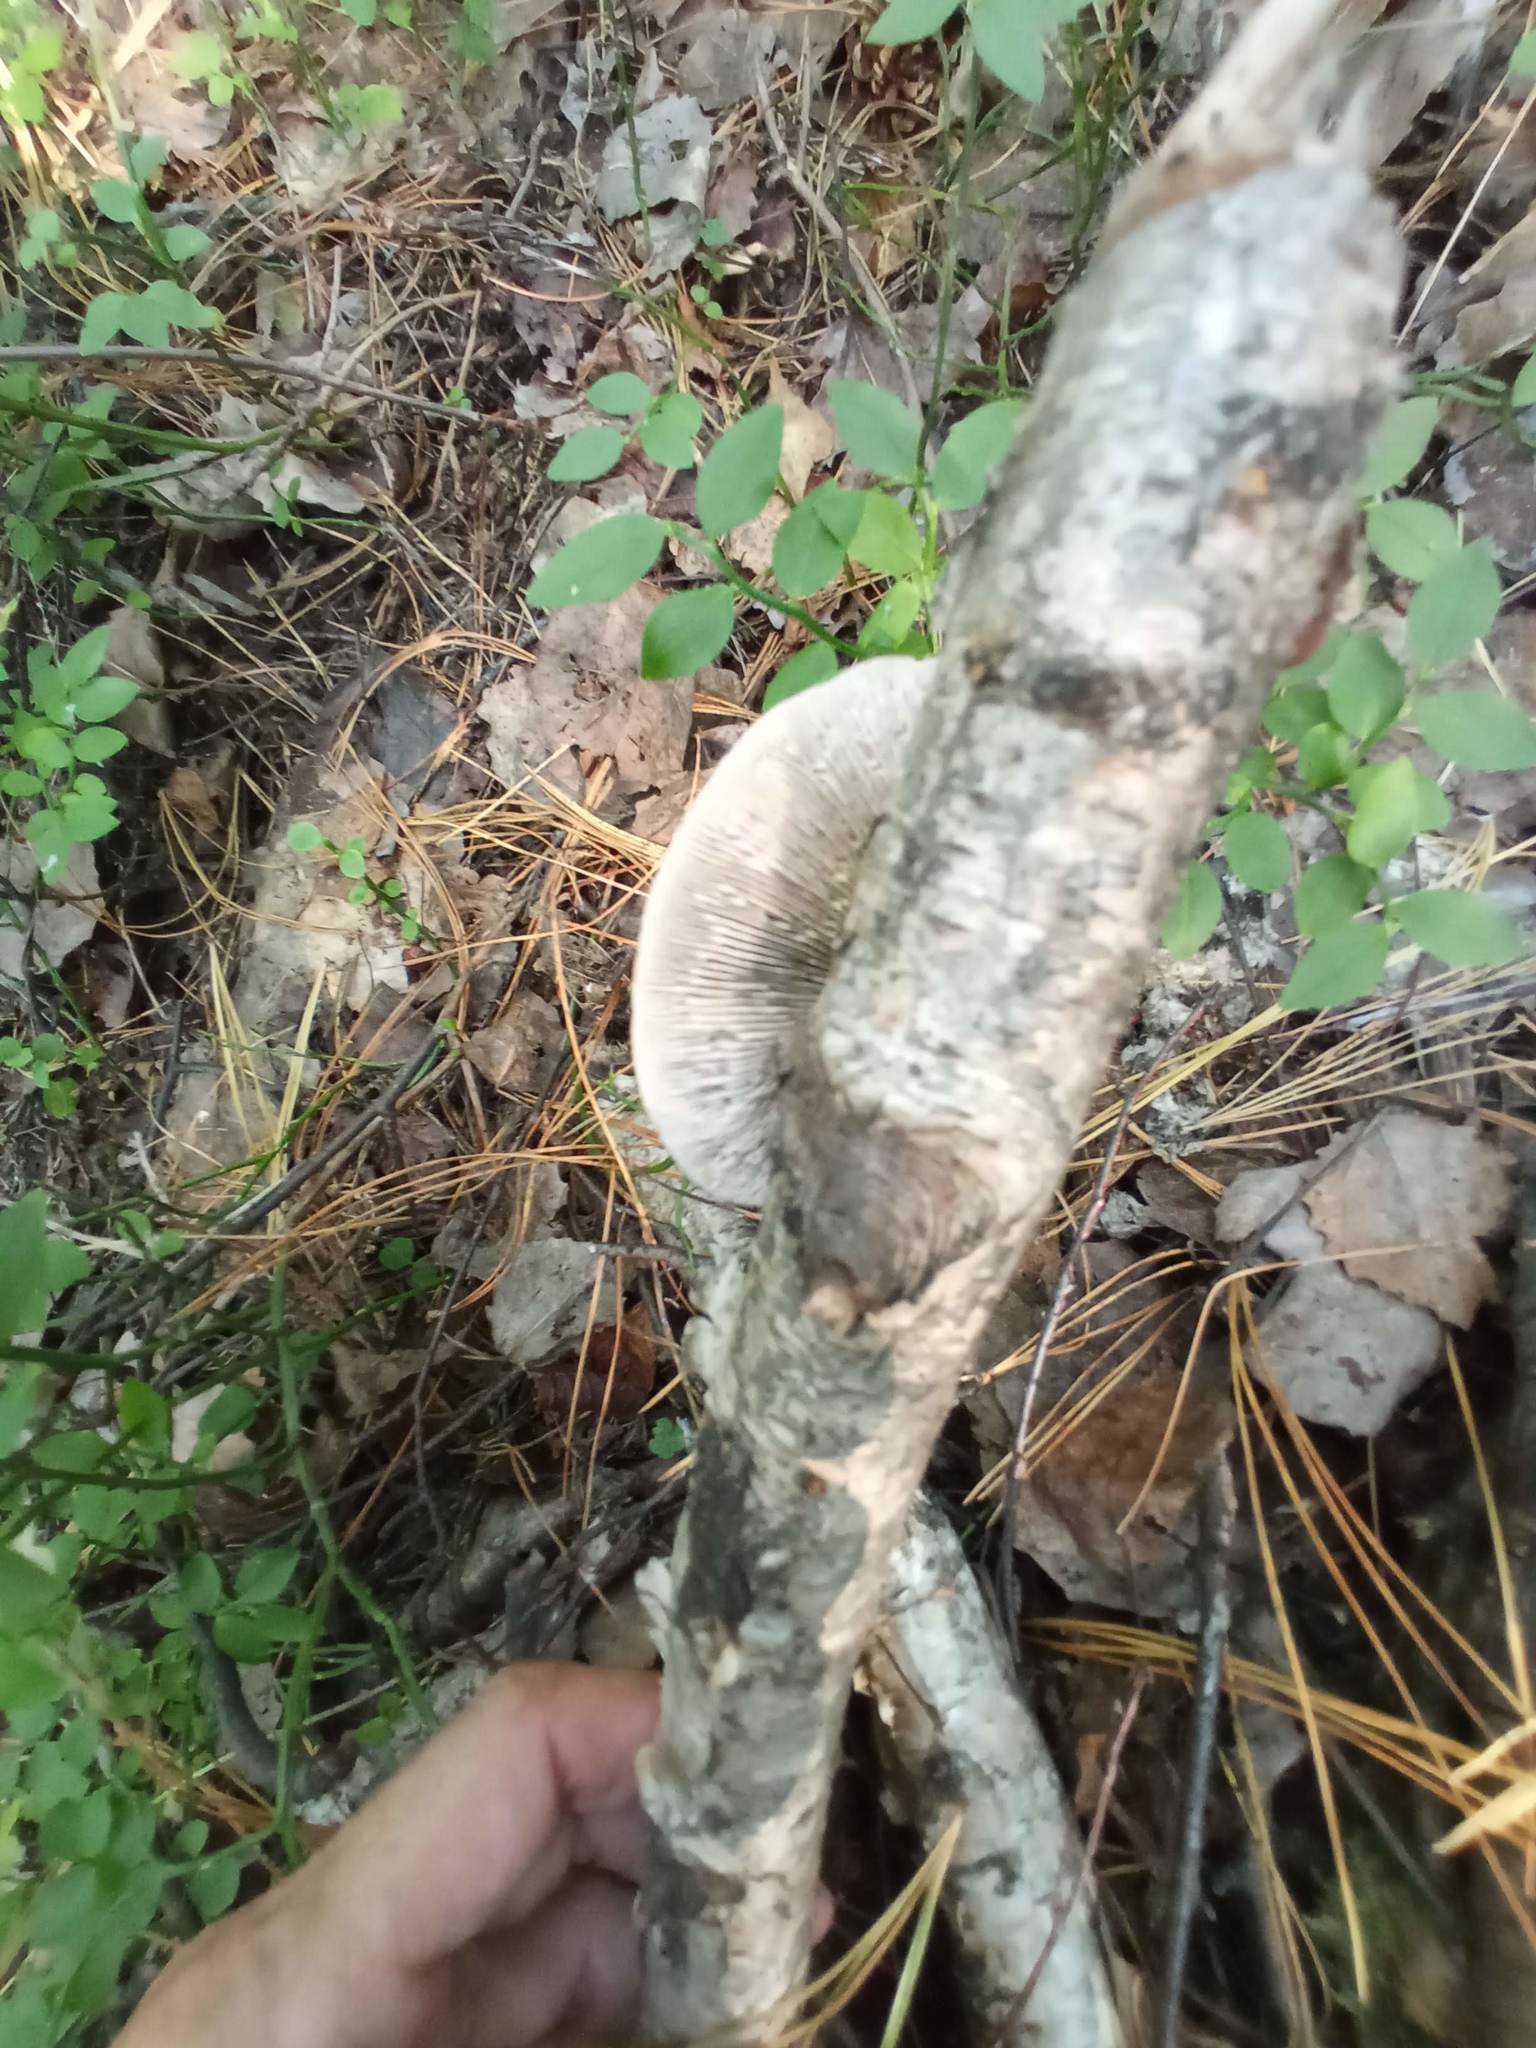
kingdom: Fungi
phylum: Basidiomycota
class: Agaricomycetes
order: Polyporales
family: Polyporaceae
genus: Daedaleopsis
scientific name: Daedaleopsis septentrionalis
